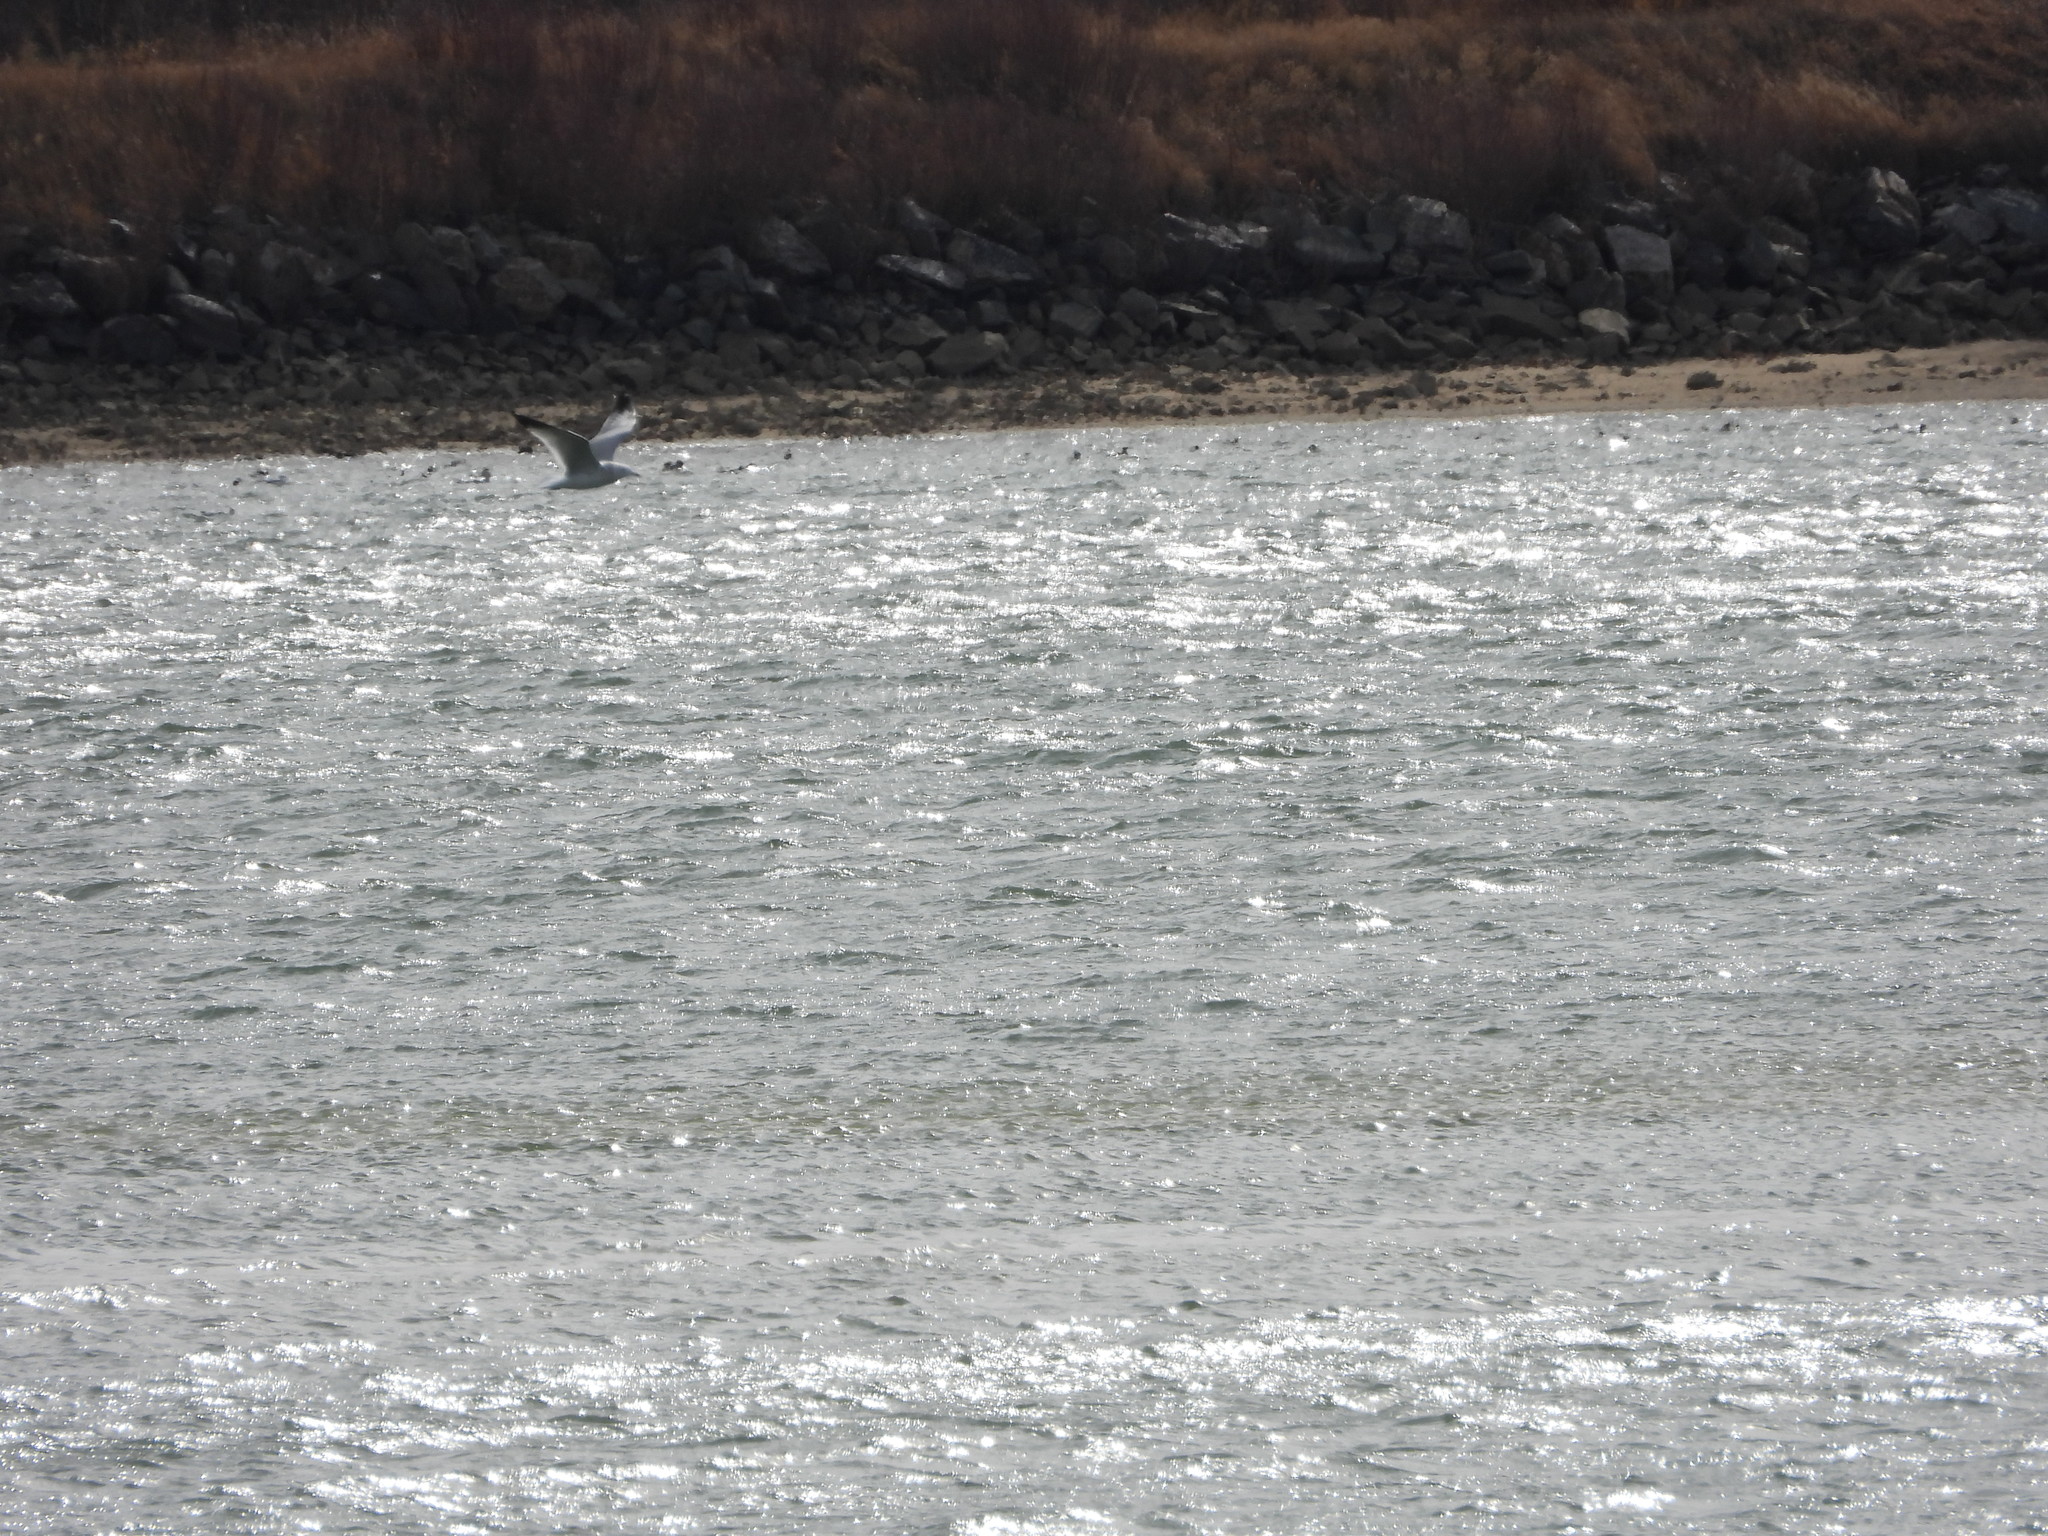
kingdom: Animalia
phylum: Chordata
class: Aves
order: Charadriiformes
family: Laridae
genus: Larus
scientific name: Larus delawarensis
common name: Ring-billed gull
